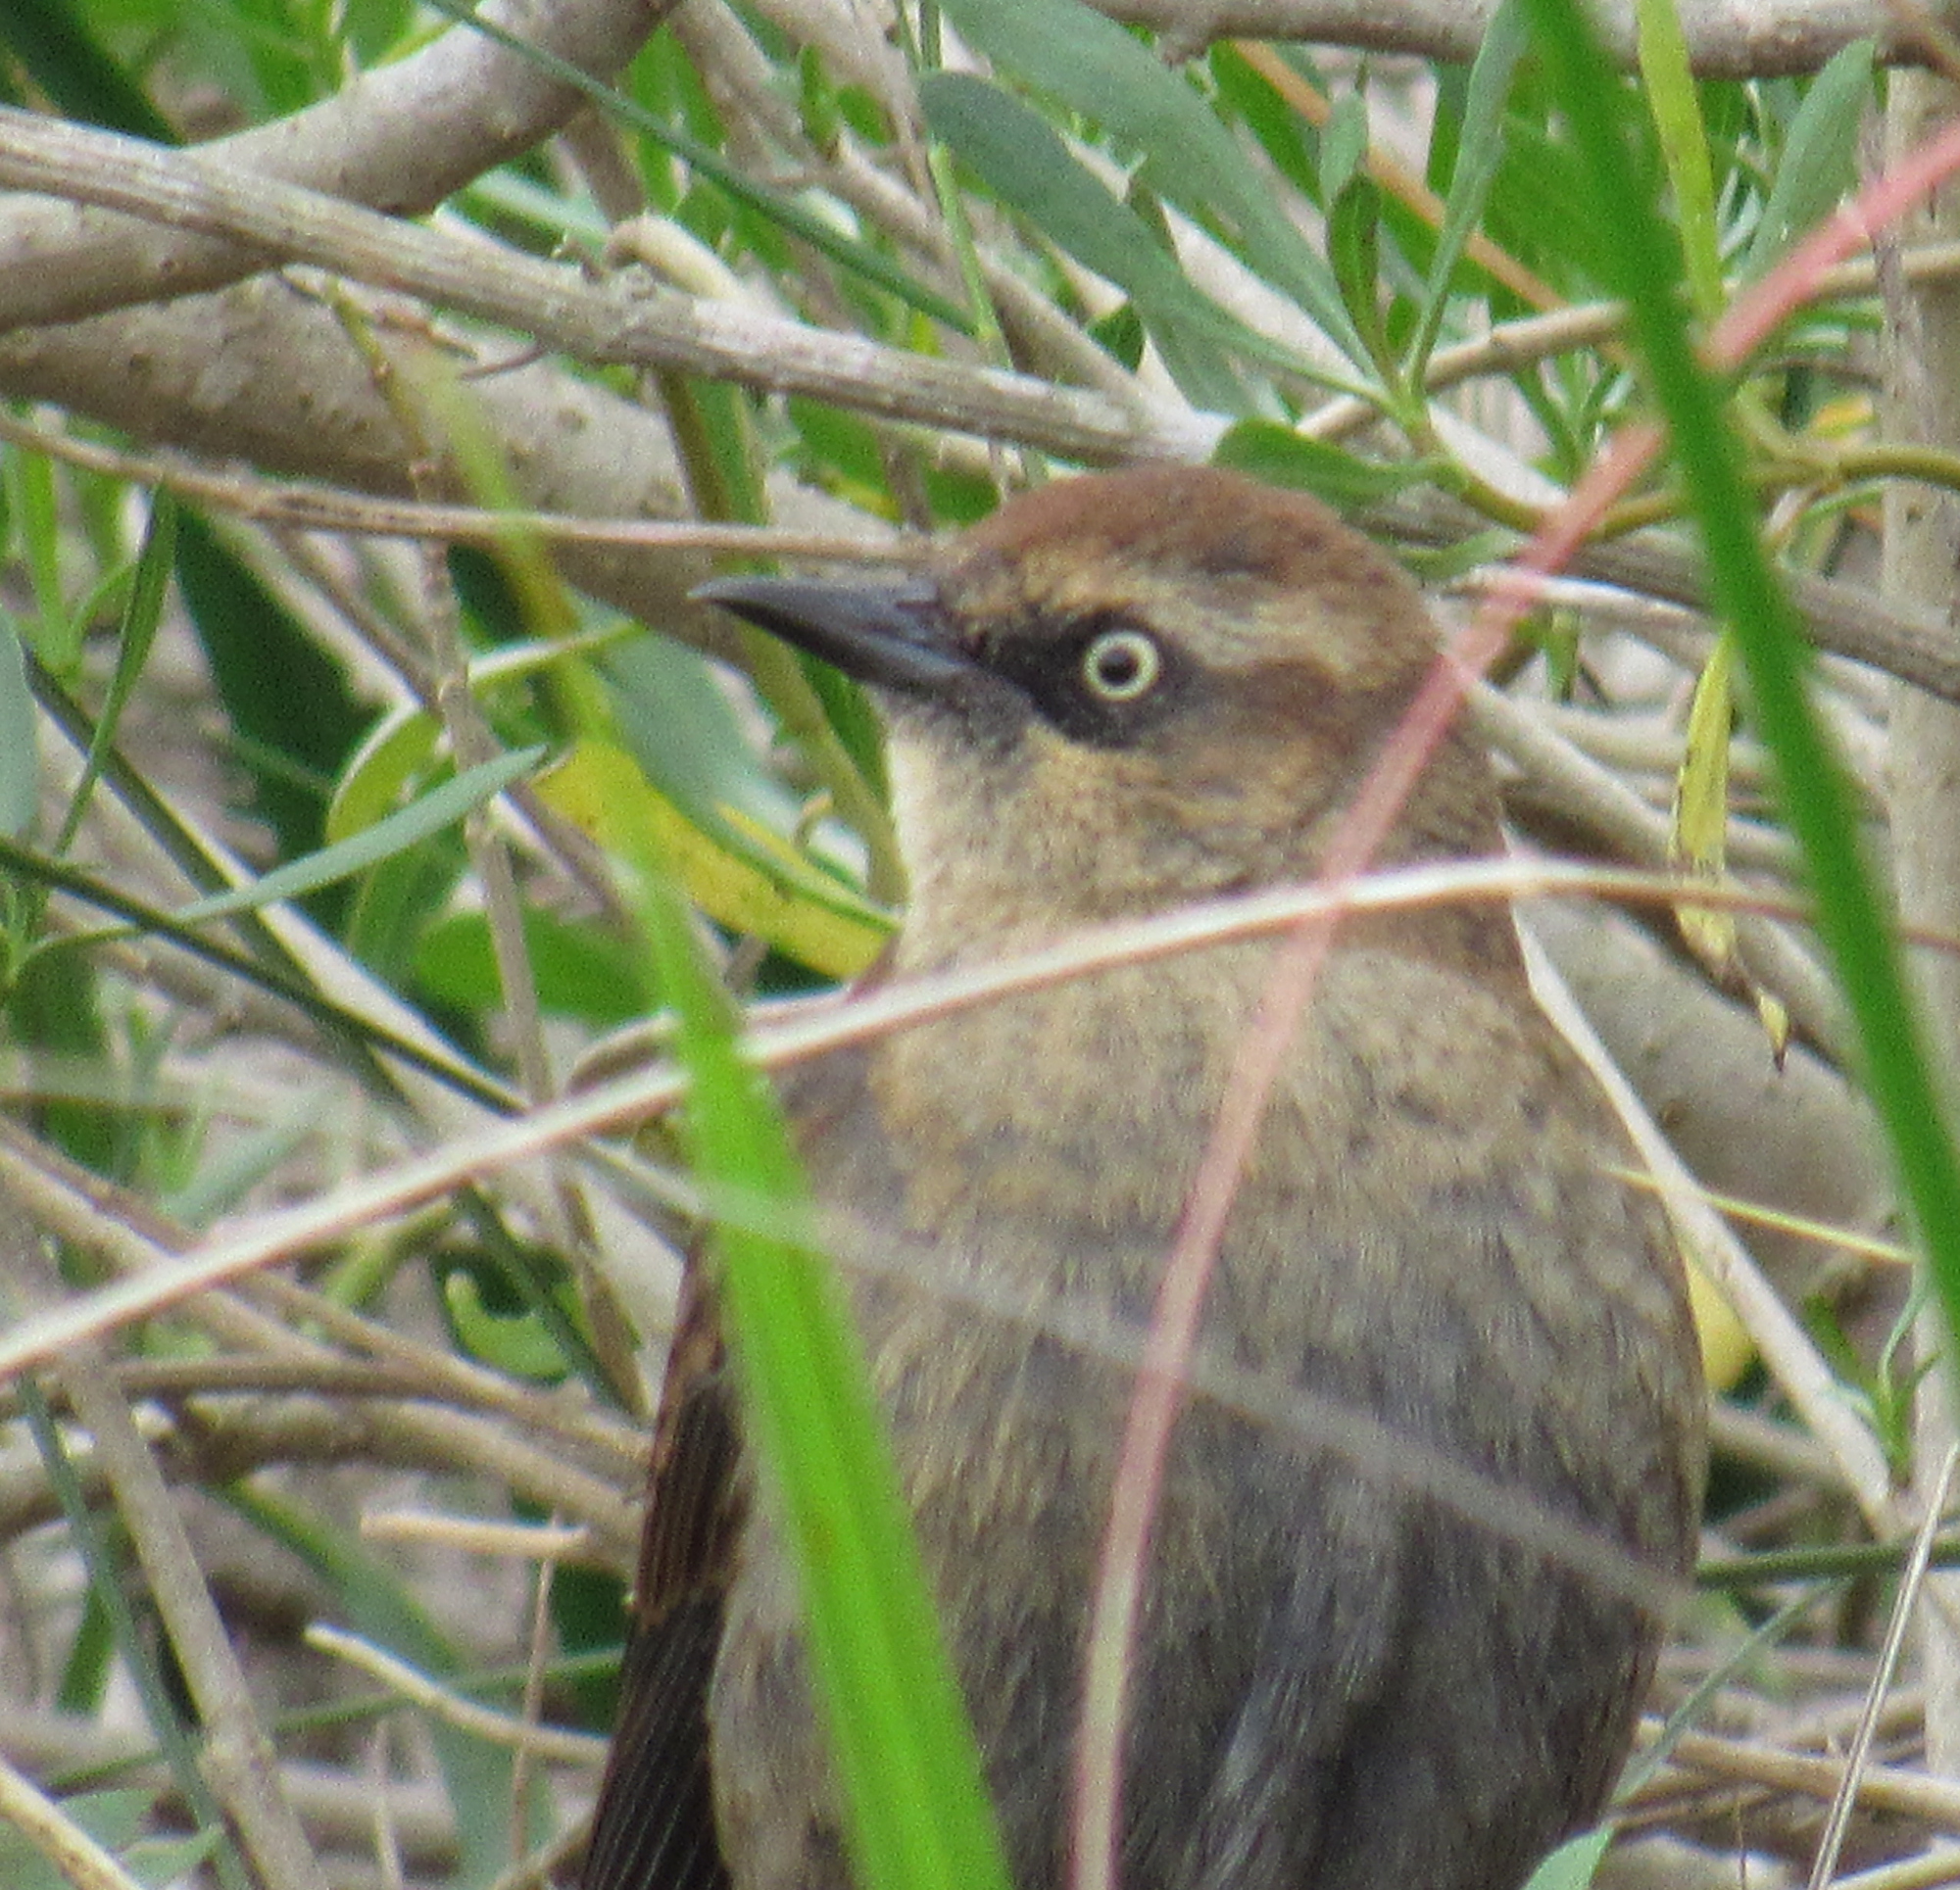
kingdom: Animalia
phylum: Chordata
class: Aves
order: Passeriformes
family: Icteridae
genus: Euphagus
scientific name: Euphagus carolinus
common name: Rusty blackbird
